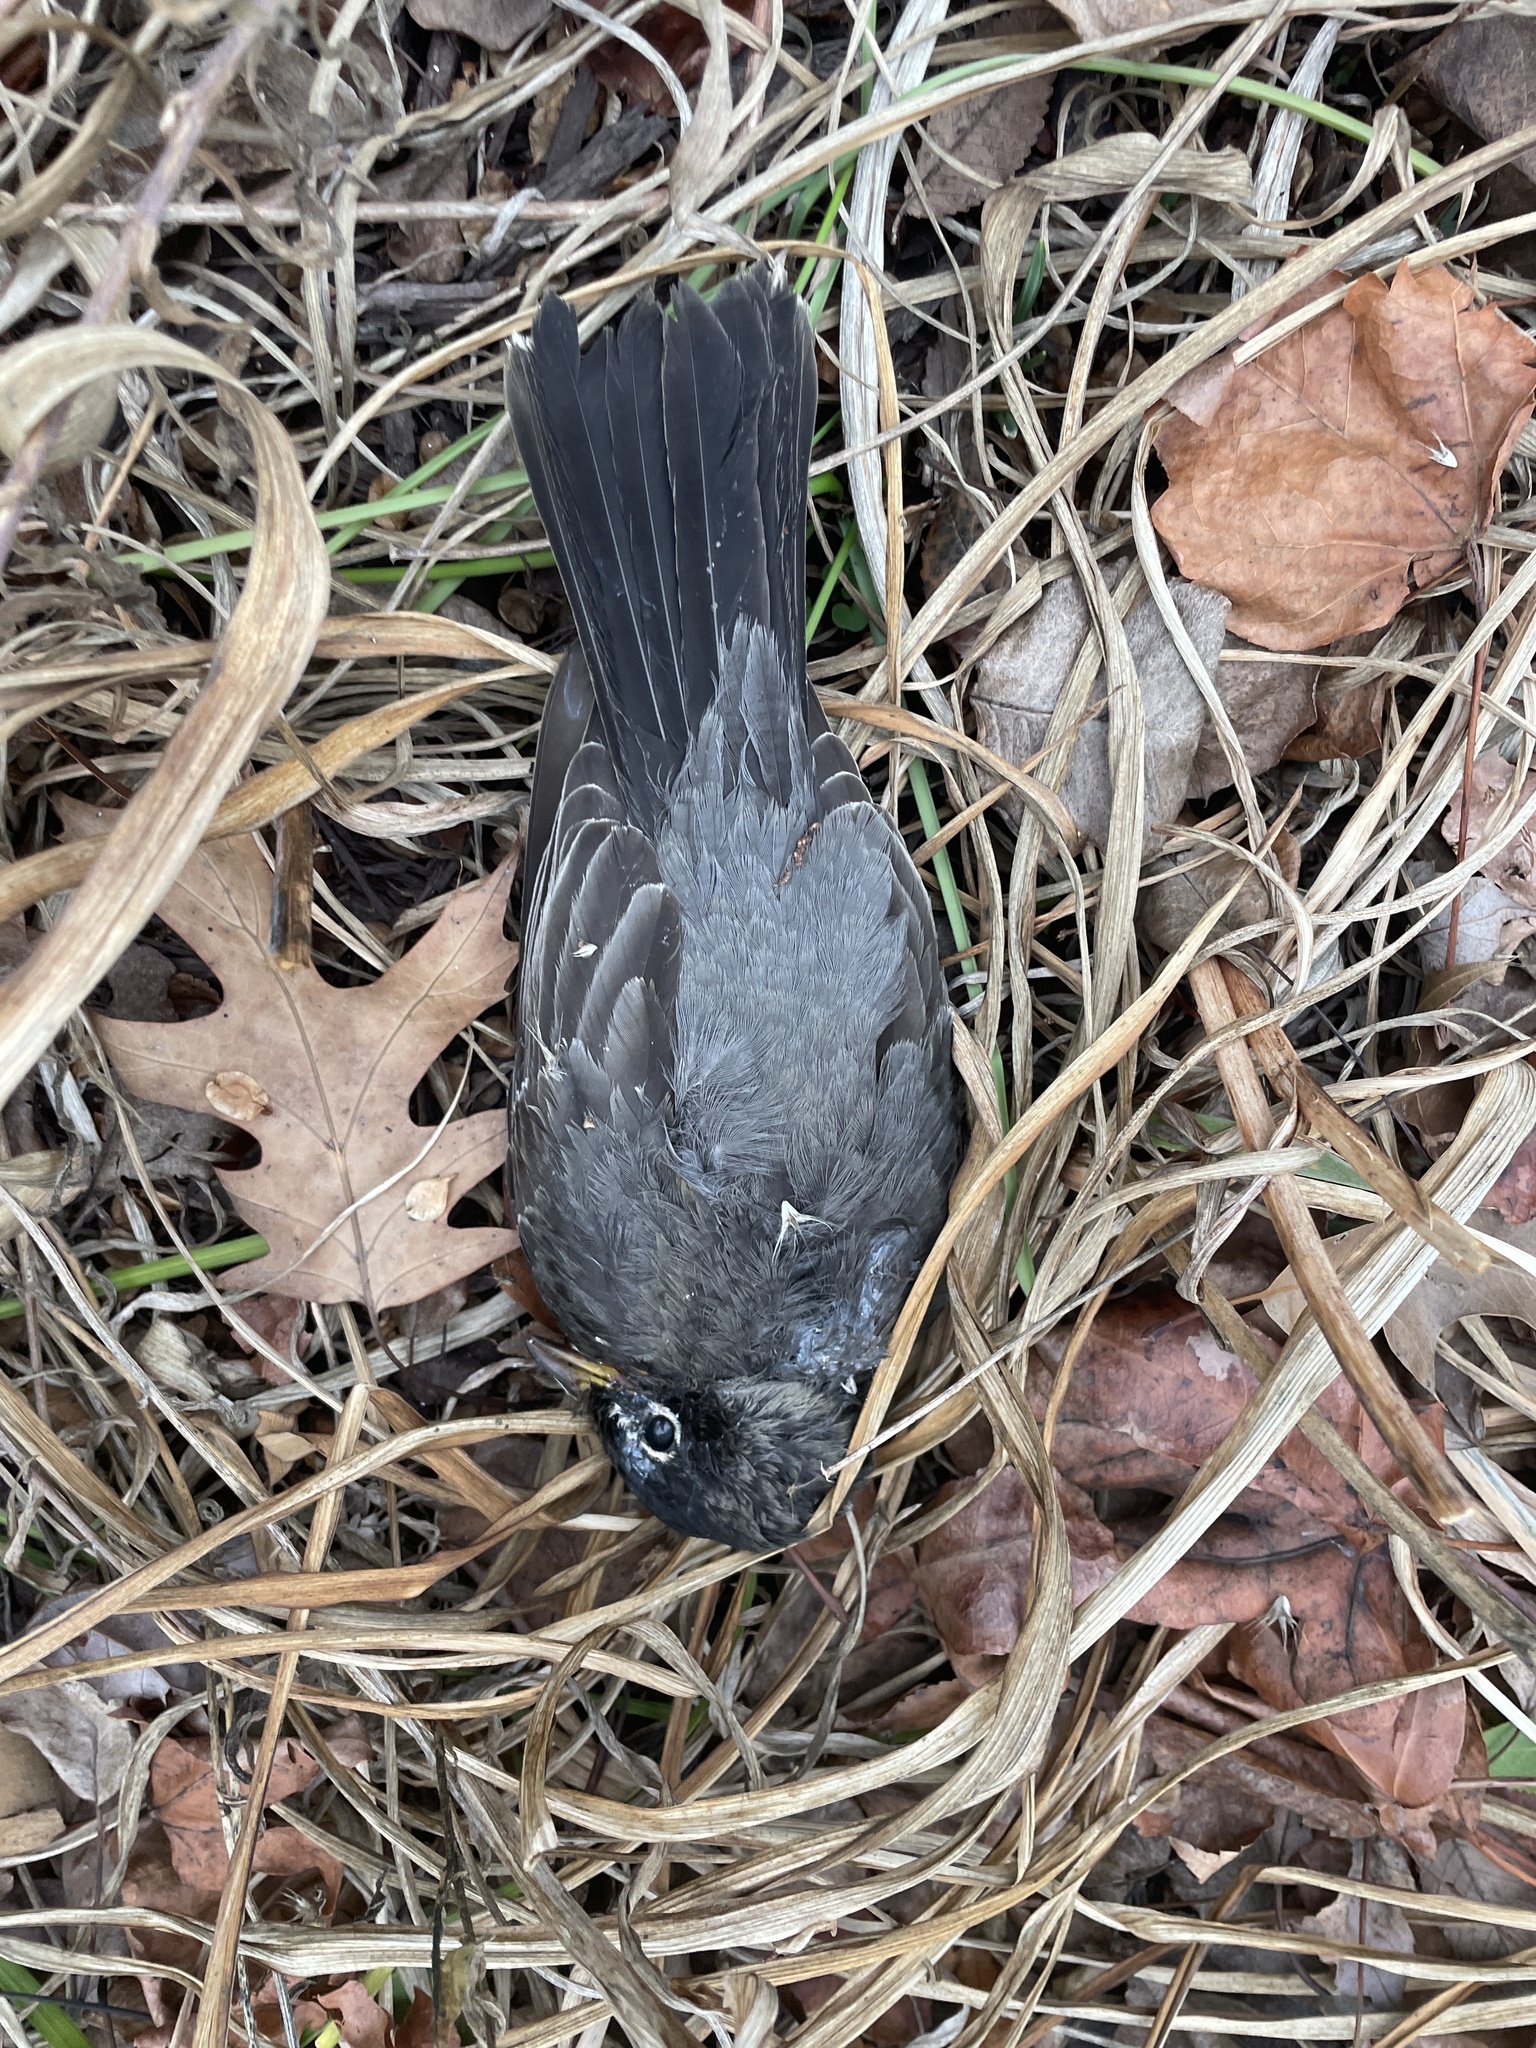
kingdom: Animalia
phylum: Chordata
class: Aves
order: Passeriformes
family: Turdidae
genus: Turdus
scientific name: Turdus migratorius
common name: American robin
